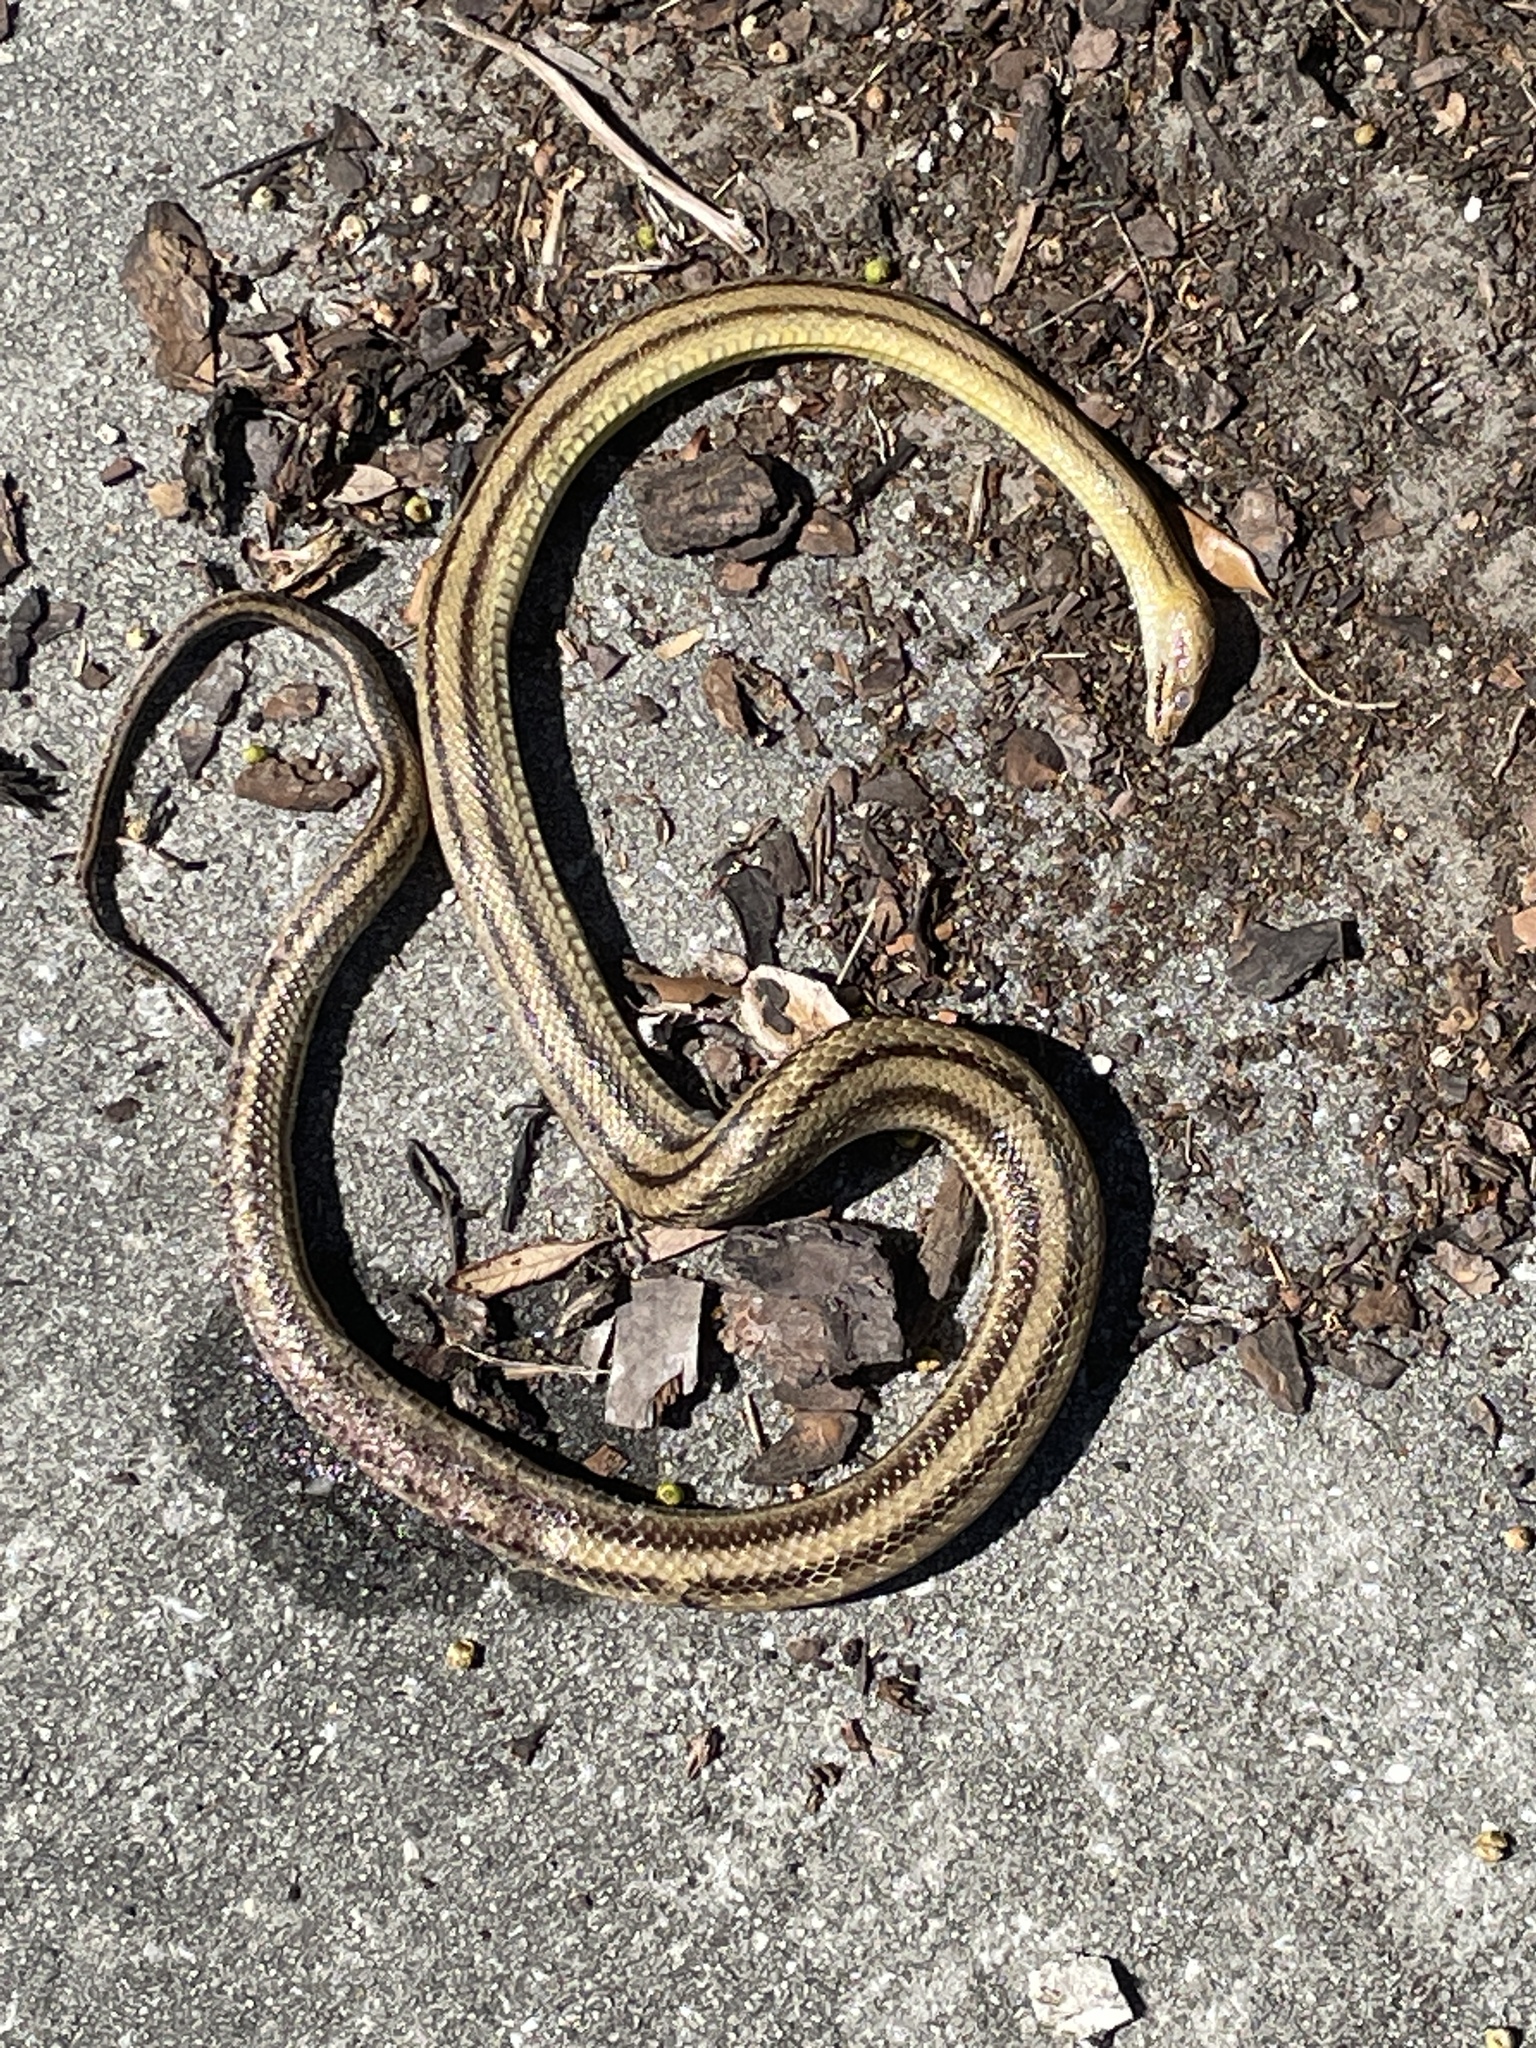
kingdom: Animalia
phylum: Chordata
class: Squamata
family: Colubridae
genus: Pantherophis
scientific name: Pantherophis alleghaniensis
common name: Eastern rat snake
